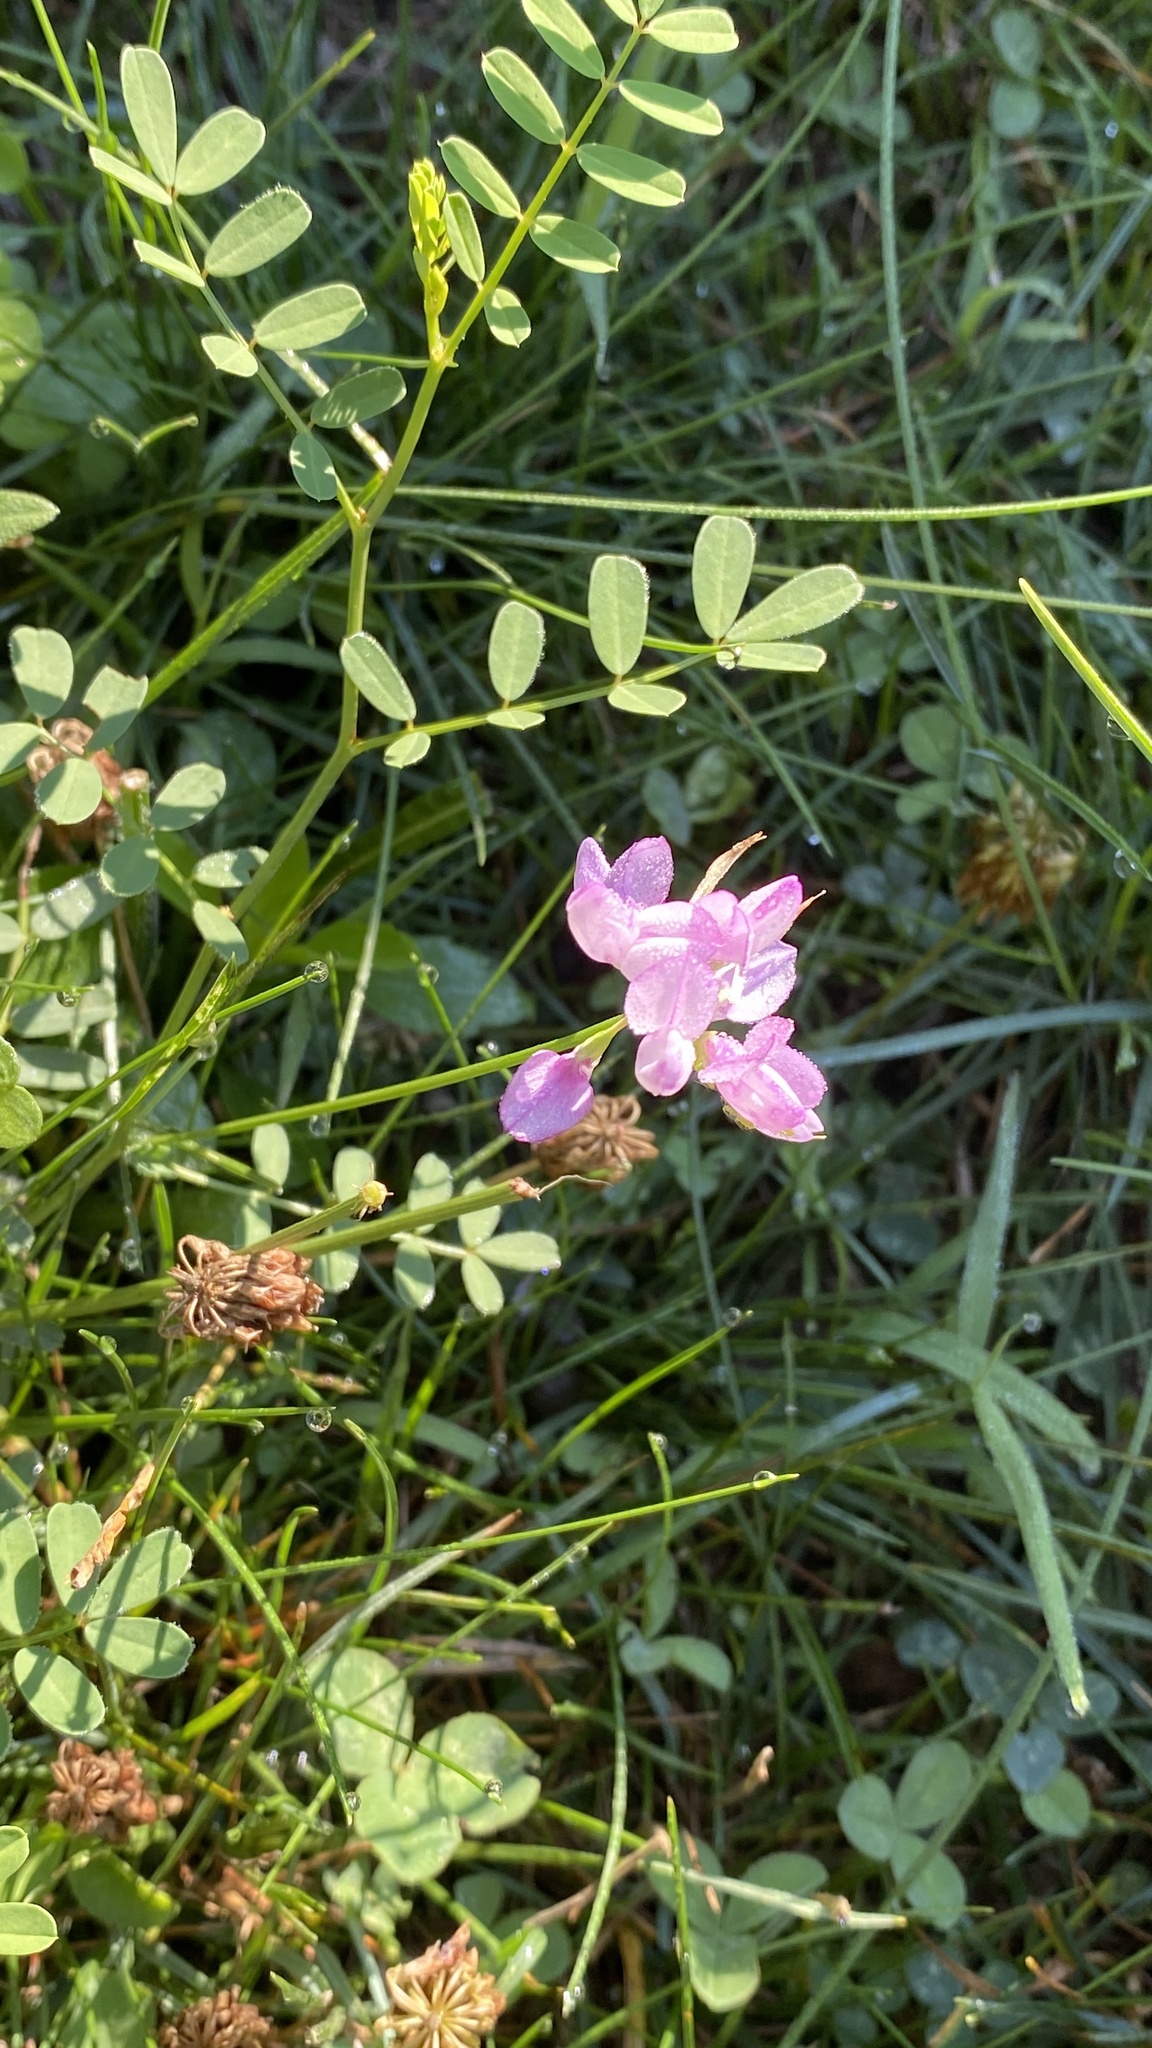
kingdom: Plantae
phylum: Tracheophyta
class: Magnoliopsida
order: Fabales
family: Fabaceae
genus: Coronilla
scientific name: Coronilla varia
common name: Crownvetch
